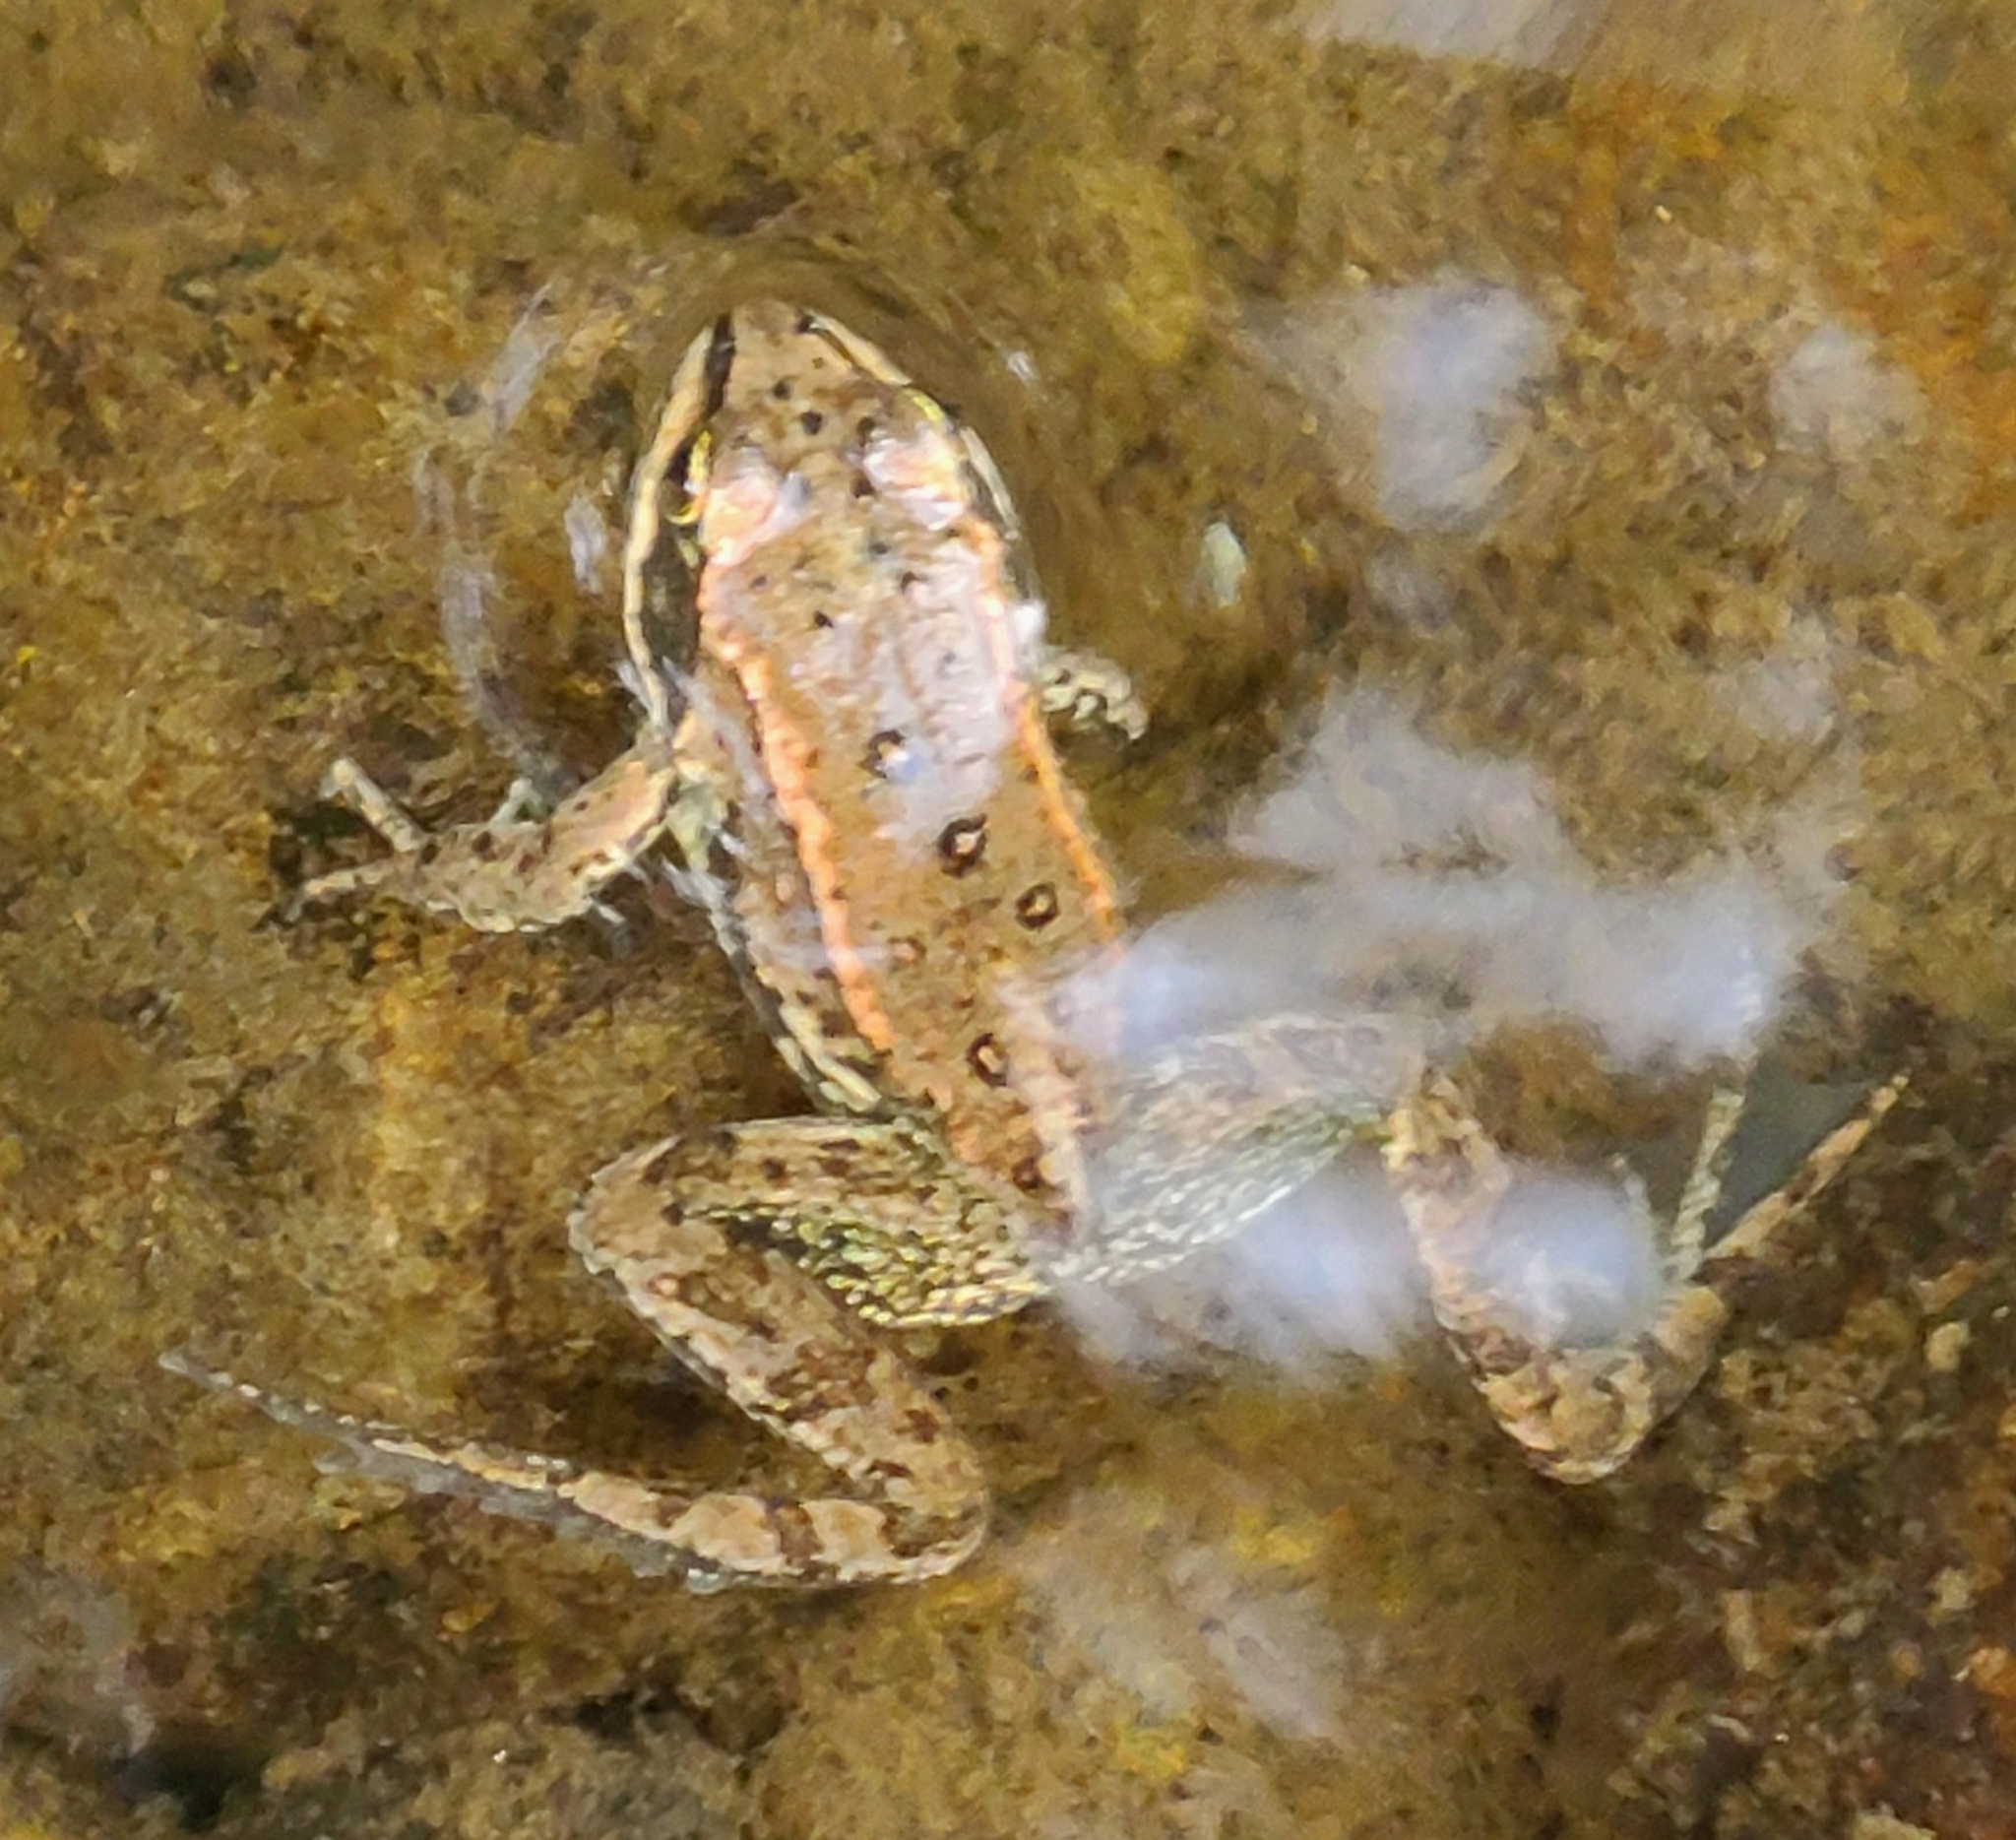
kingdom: Animalia
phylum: Chordata
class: Amphibia
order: Anura
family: Ranidae
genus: Rana
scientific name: Rana luteiventris
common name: Columbia spotted frog
